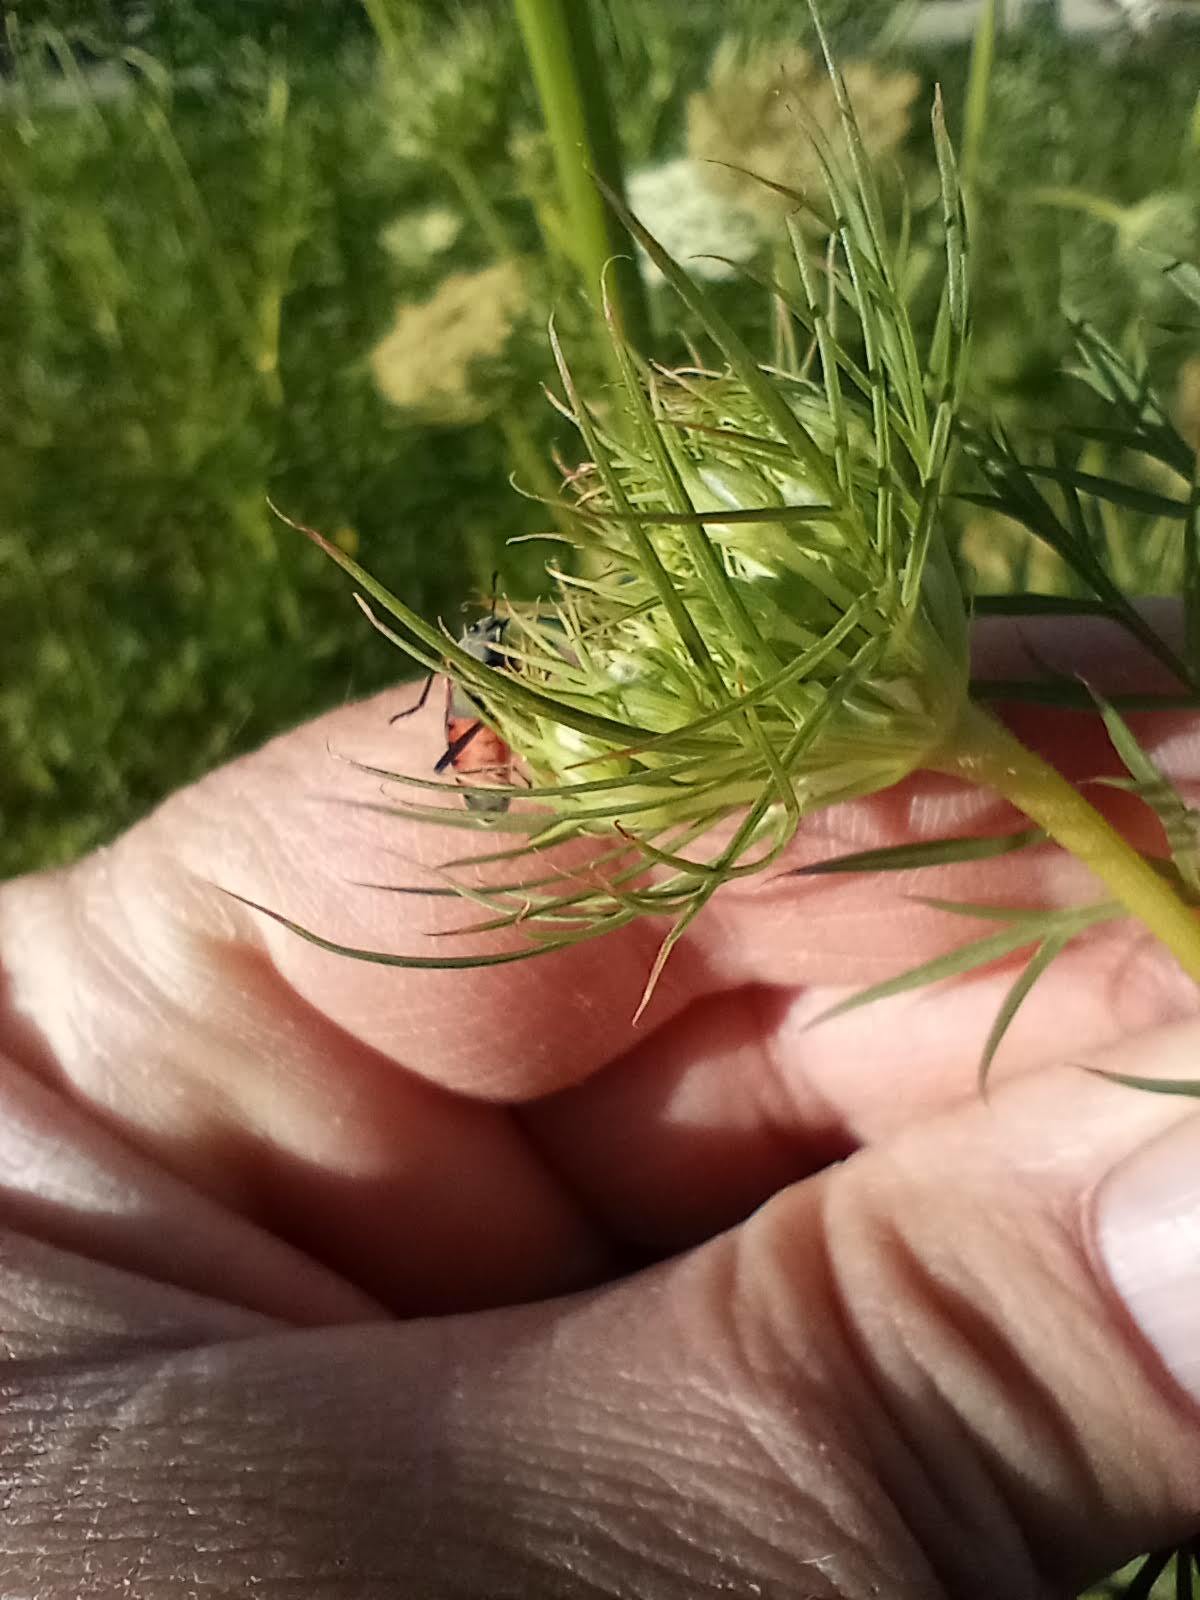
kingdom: Animalia
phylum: Arthropoda
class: Insecta
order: Hemiptera
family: Lygaeidae
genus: Lygaeus
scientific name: Lygaeus kalmii
